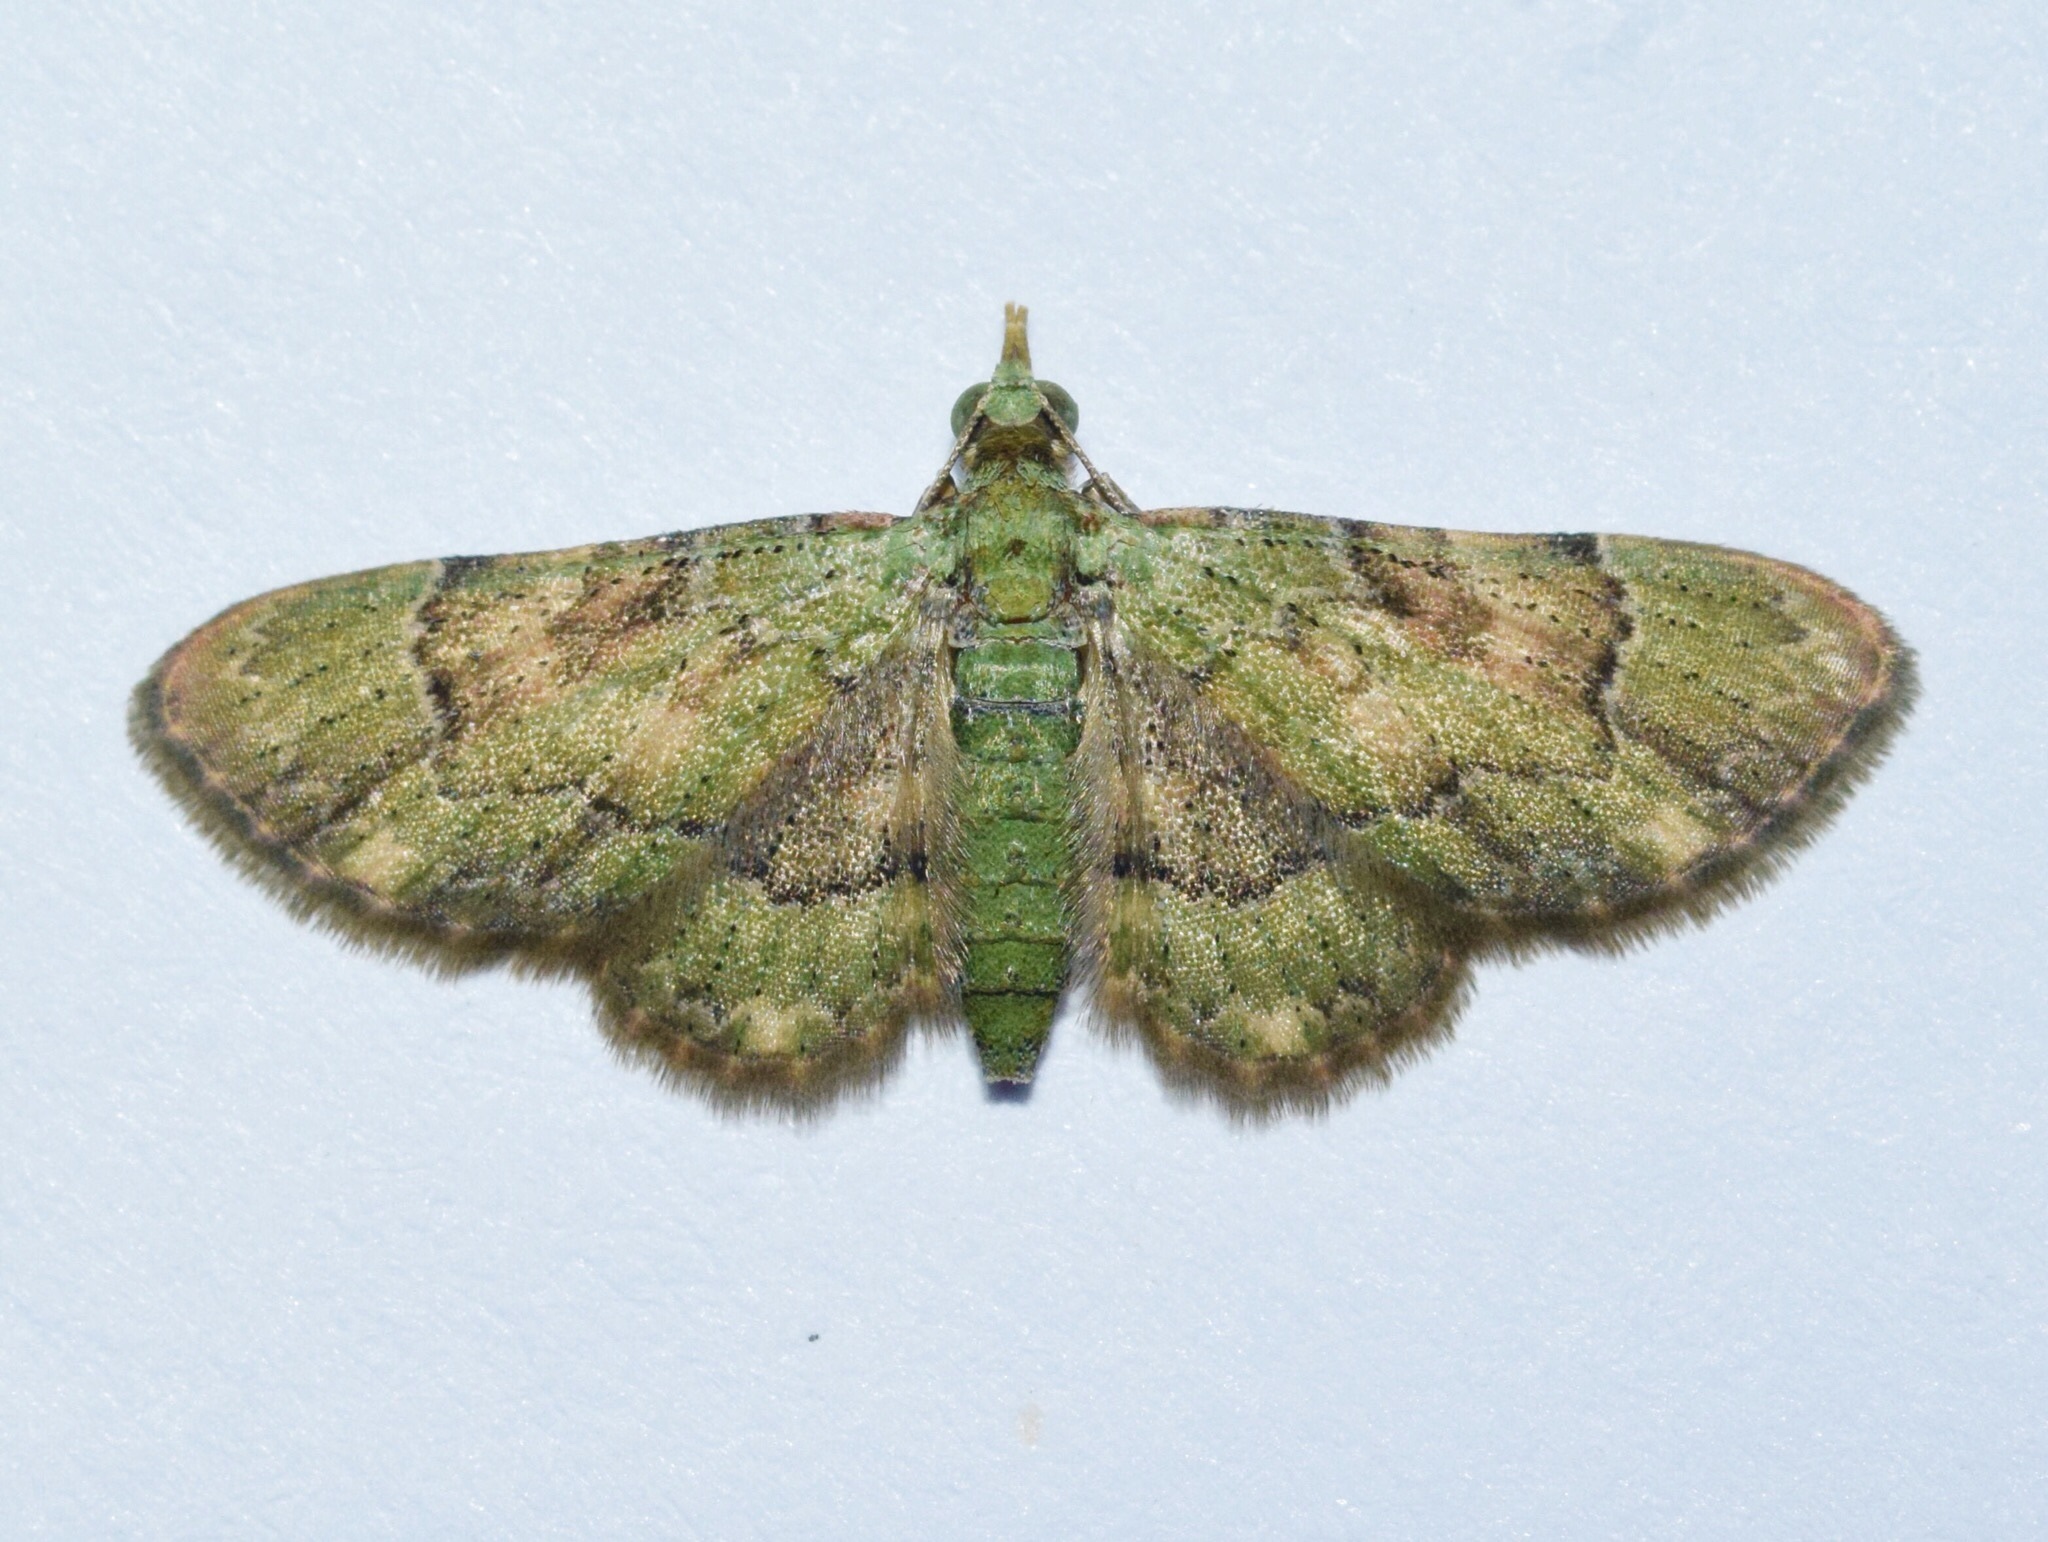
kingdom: Animalia
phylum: Arthropoda
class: Insecta
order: Lepidoptera
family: Geometridae
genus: Gymnoscelis
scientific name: Gymnoscelis oribiensis
